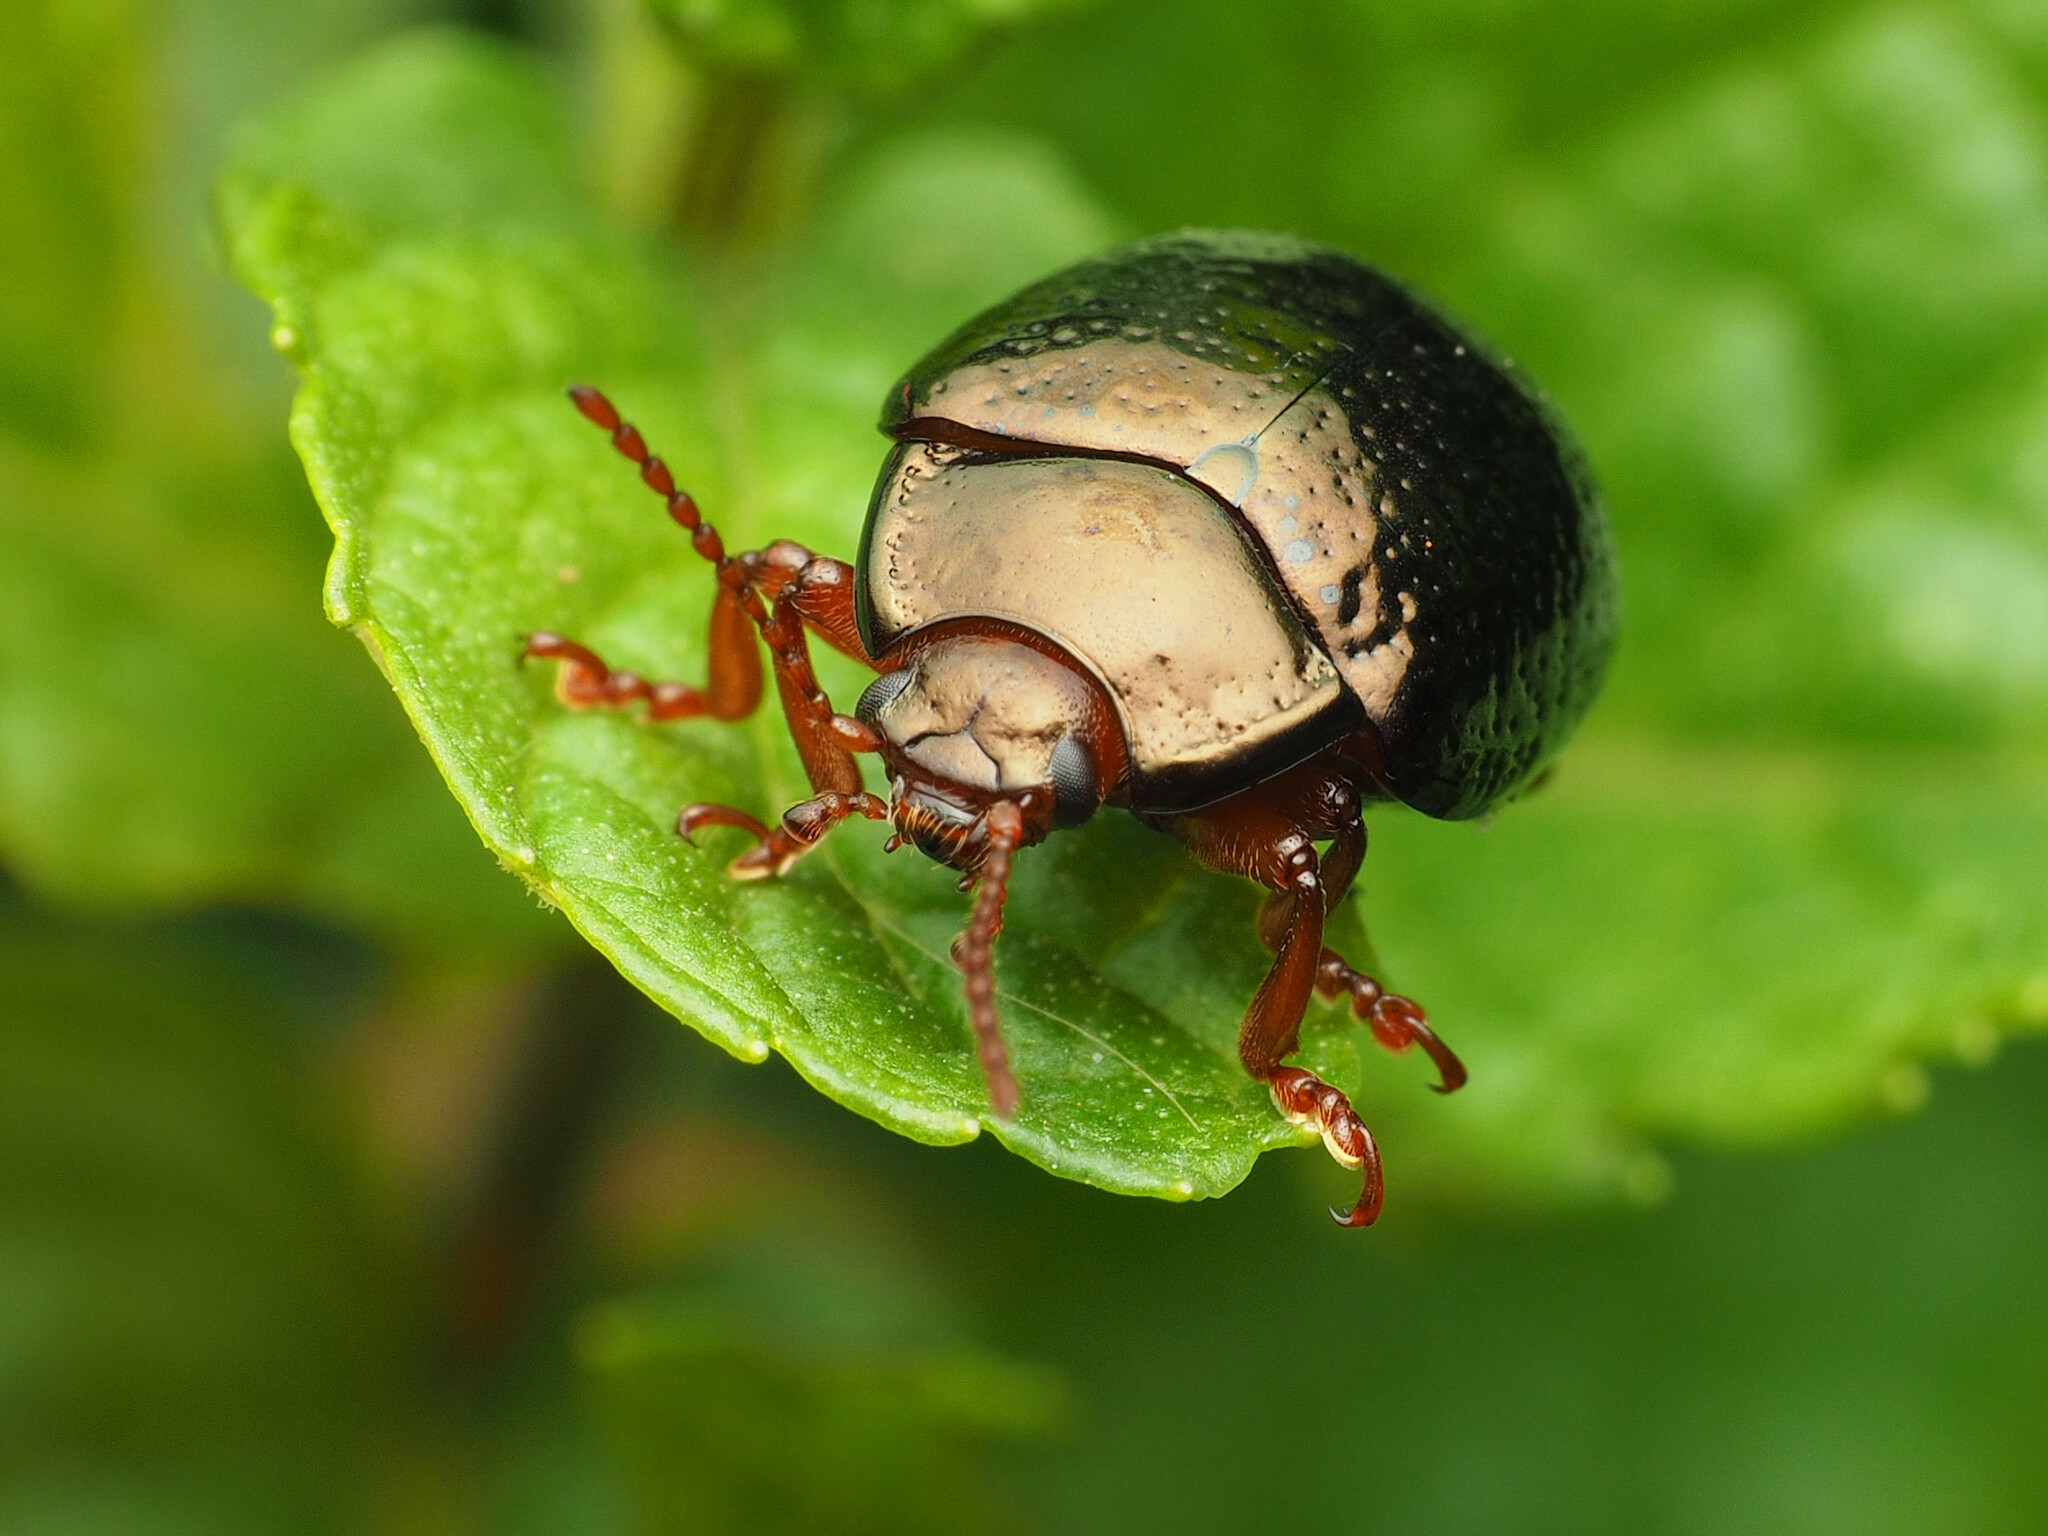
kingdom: Animalia
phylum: Arthropoda
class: Insecta
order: Coleoptera
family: Chrysomelidae
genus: Chrysolina
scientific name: Chrysolina bankii
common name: Leaf beetle
